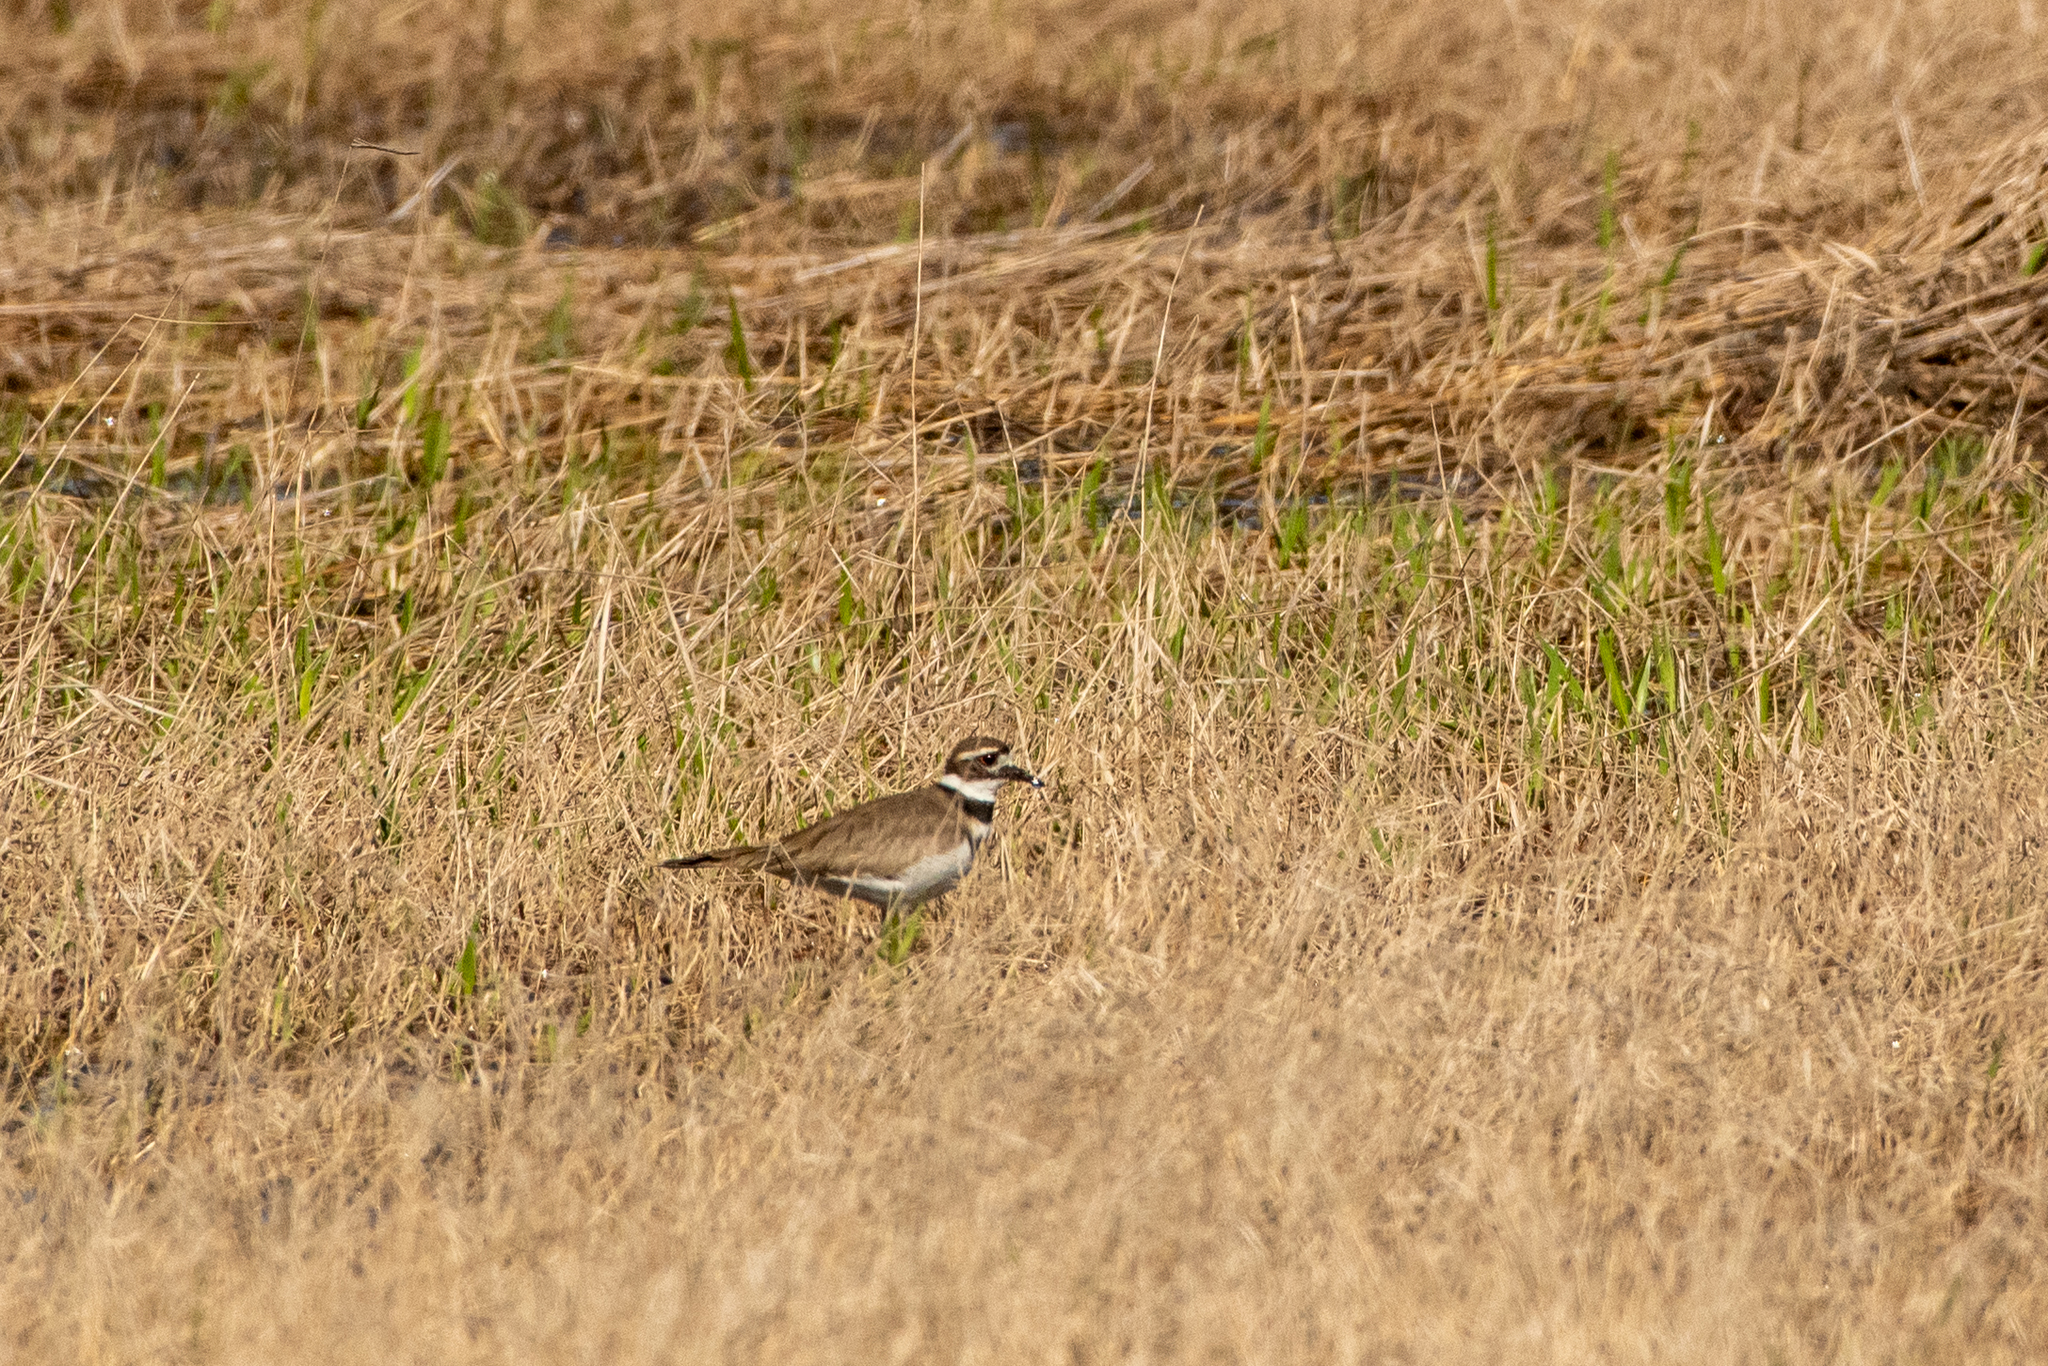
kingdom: Animalia
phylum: Chordata
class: Aves
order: Charadriiformes
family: Charadriidae
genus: Charadrius
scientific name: Charadrius vociferus
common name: Killdeer
